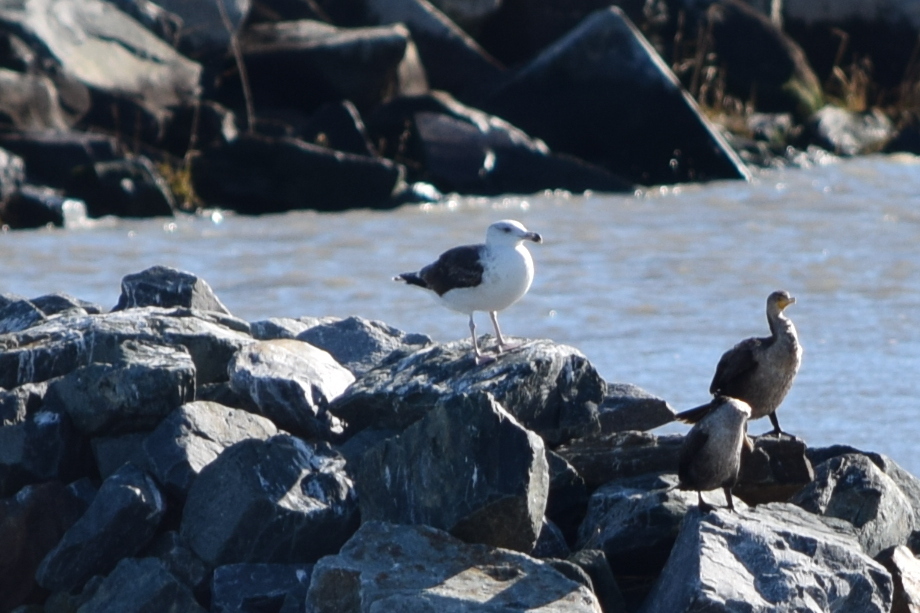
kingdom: Animalia
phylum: Chordata
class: Aves
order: Charadriiformes
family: Laridae
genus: Larus
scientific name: Larus marinus
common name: Great black-backed gull
